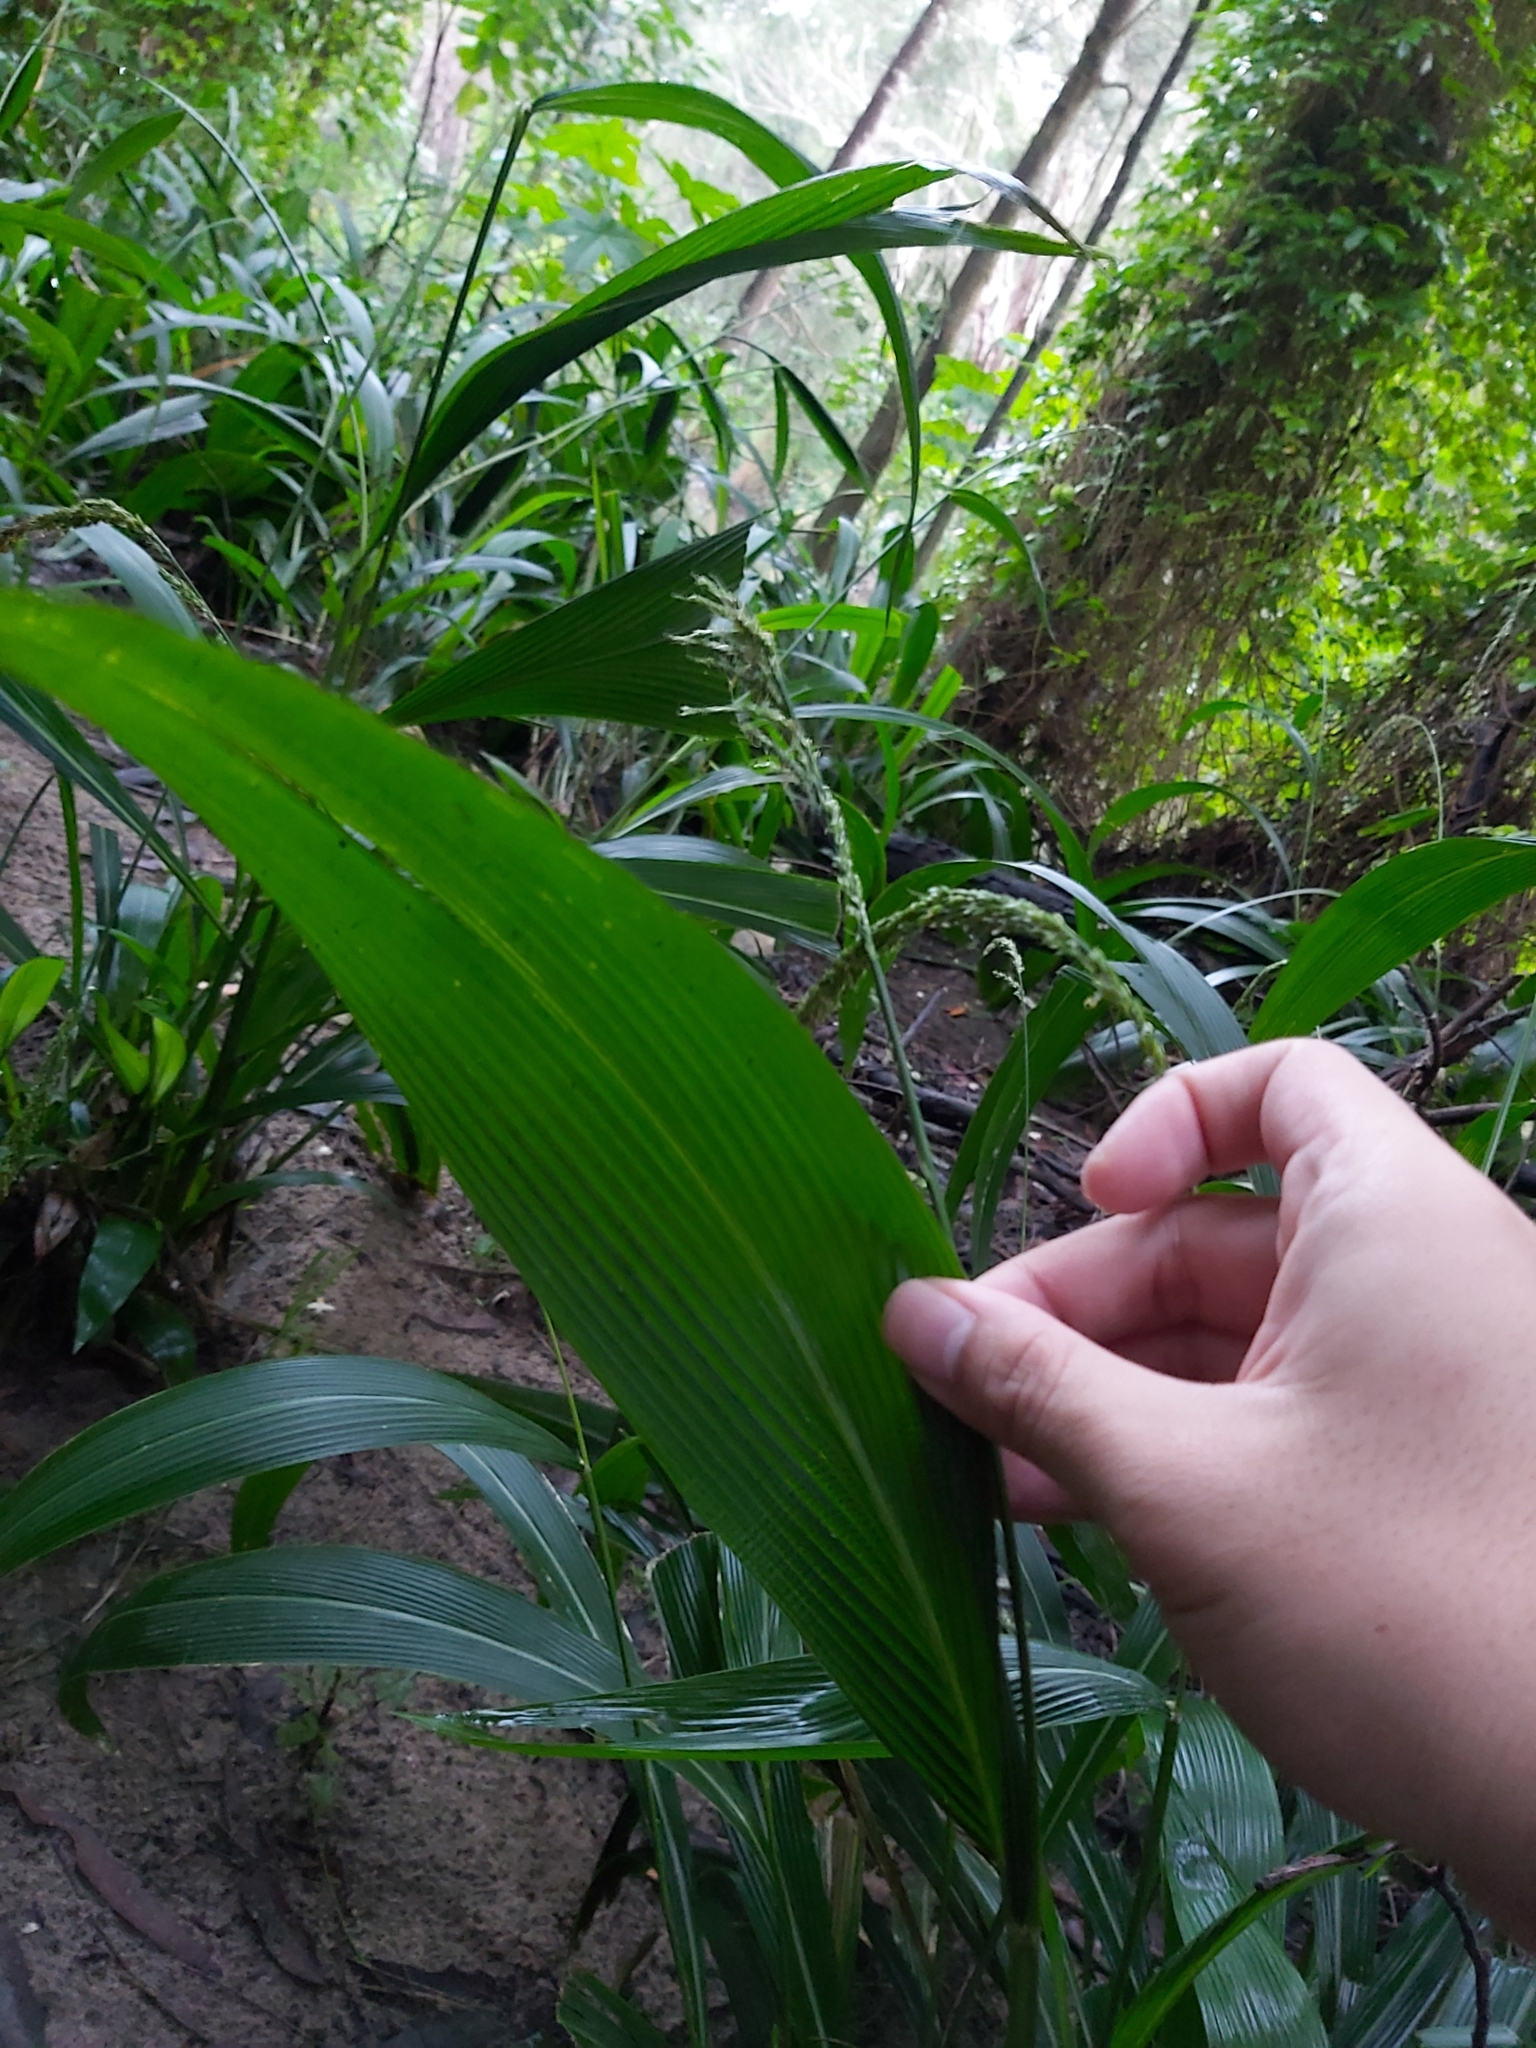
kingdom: Plantae
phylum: Tracheophyta
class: Liliopsida
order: Poales
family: Poaceae
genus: Setaria
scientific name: Setaria palmifolia
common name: Broadleaved bristlegrass
